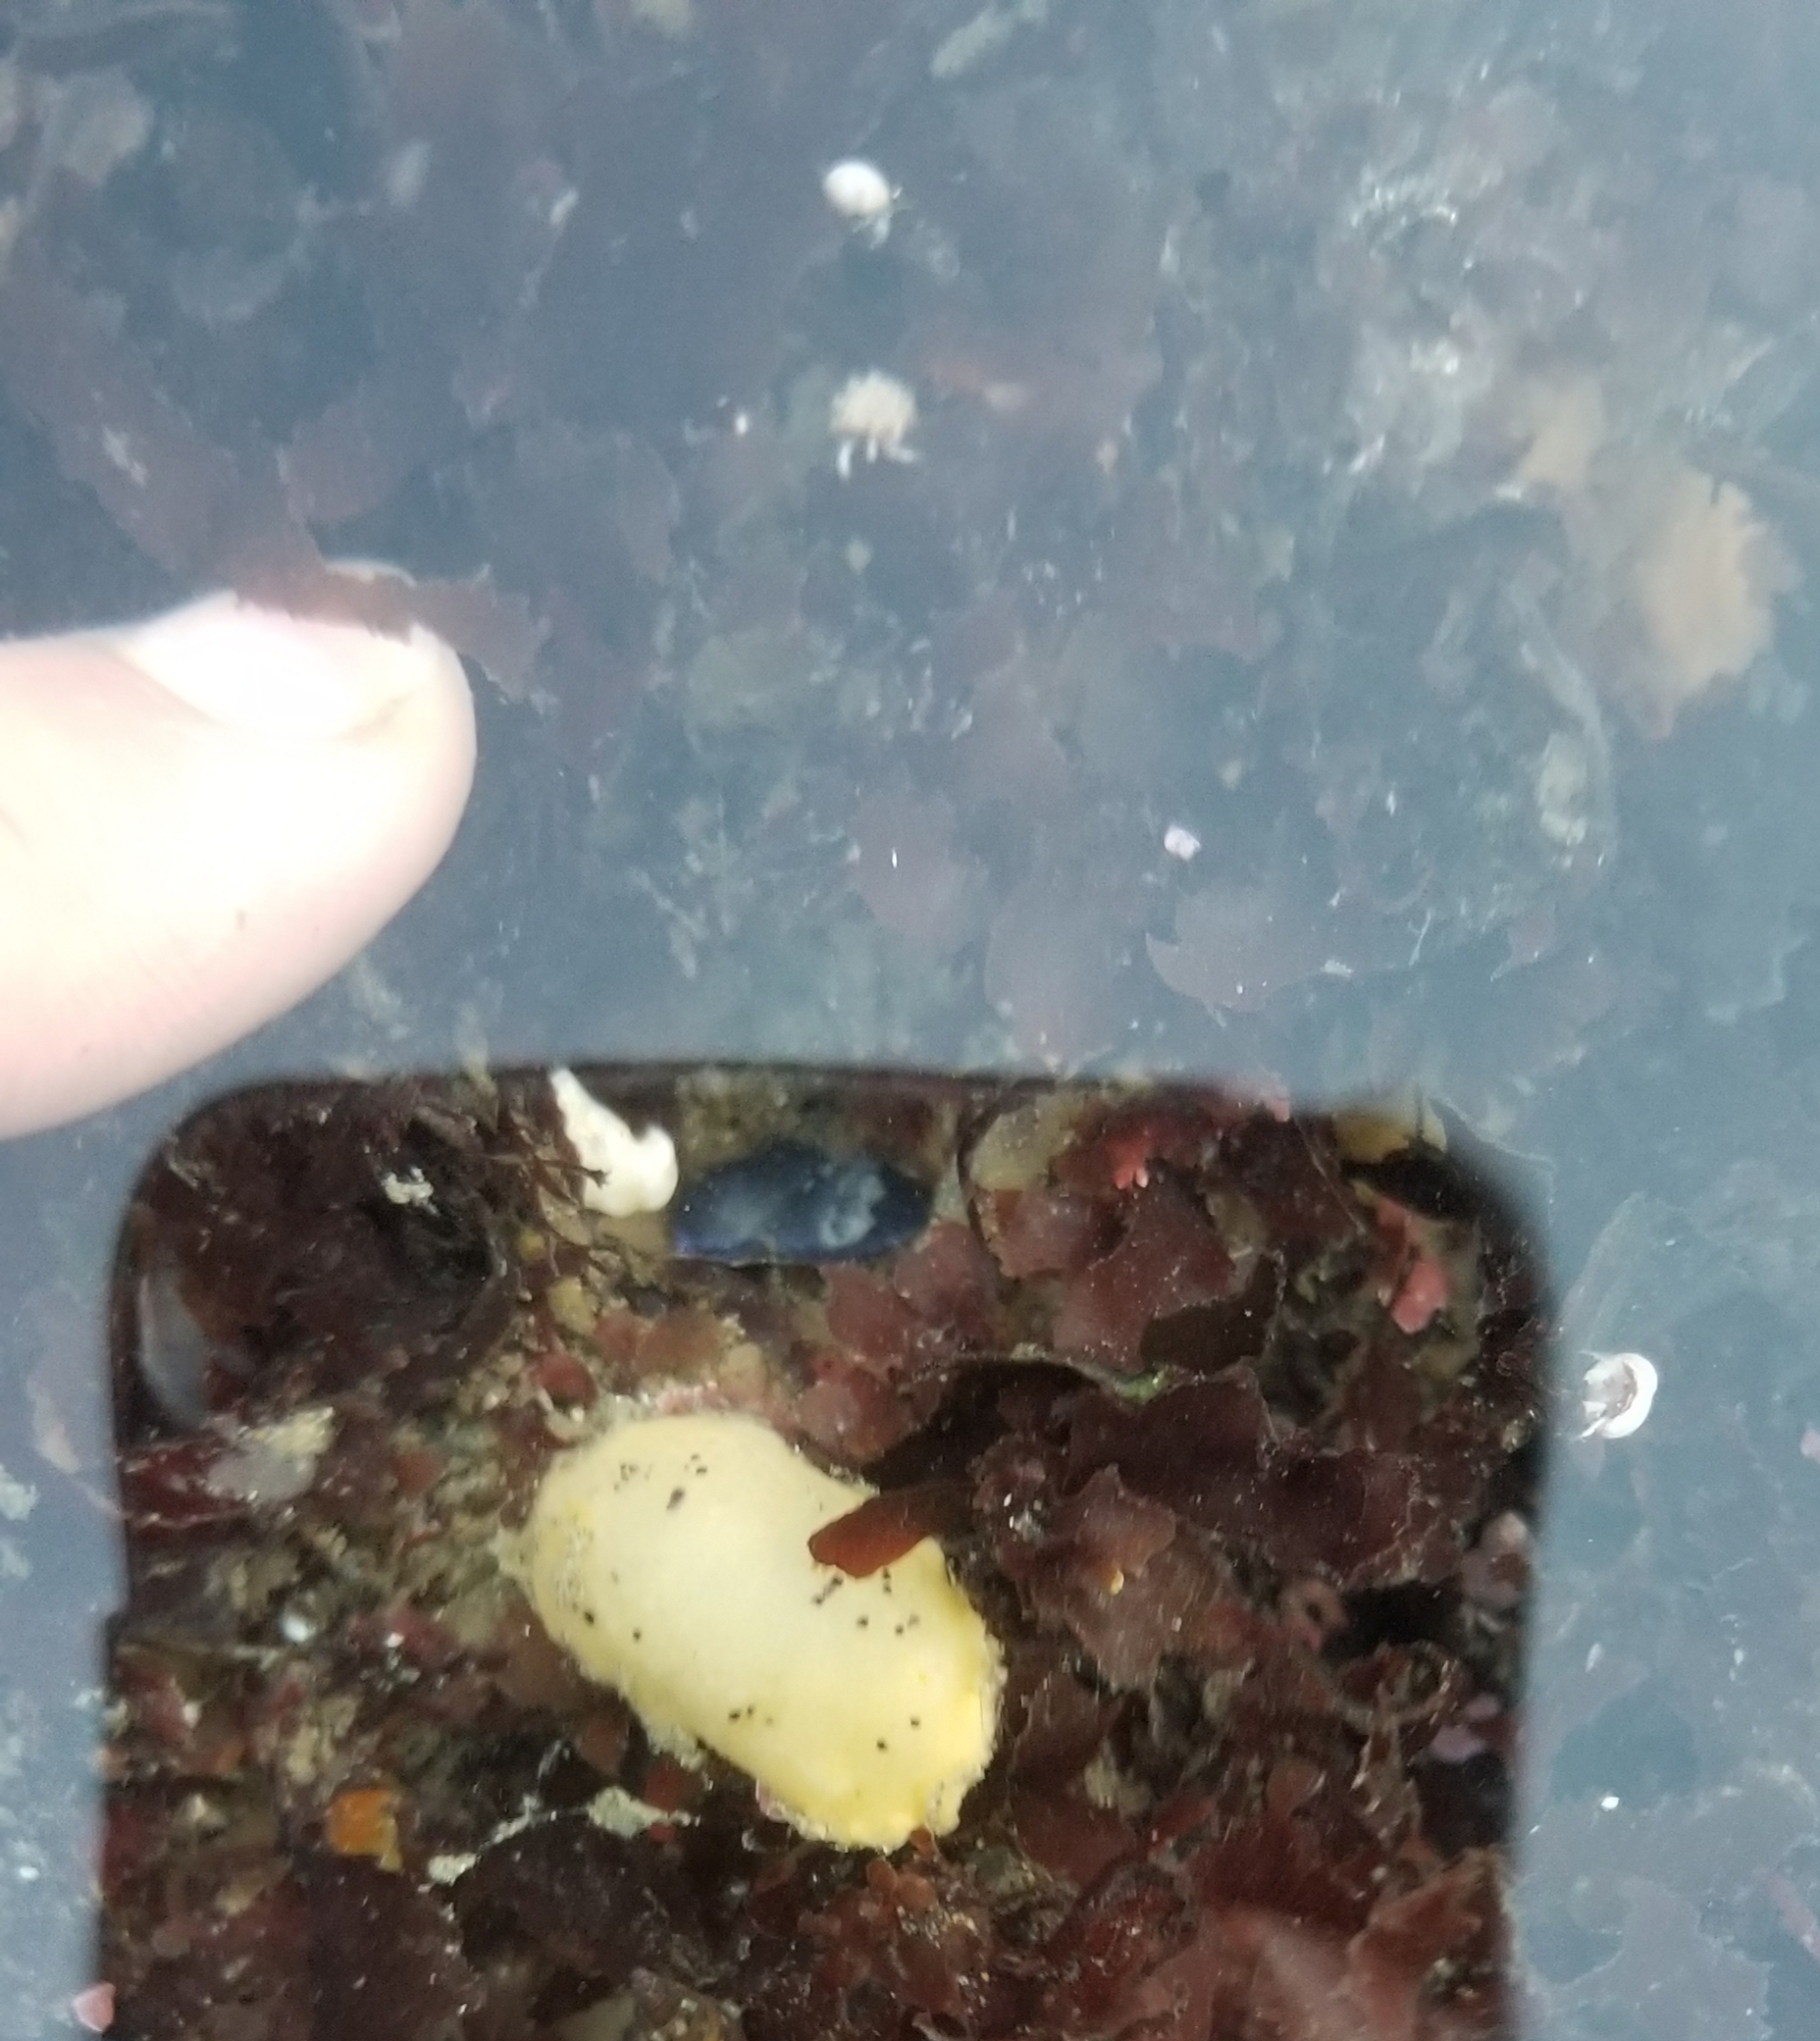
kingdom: Animalia
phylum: Mollusca
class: Gastropoda
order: Nudibranchia
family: Dorididae
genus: Doris
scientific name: Doris montereyensis
